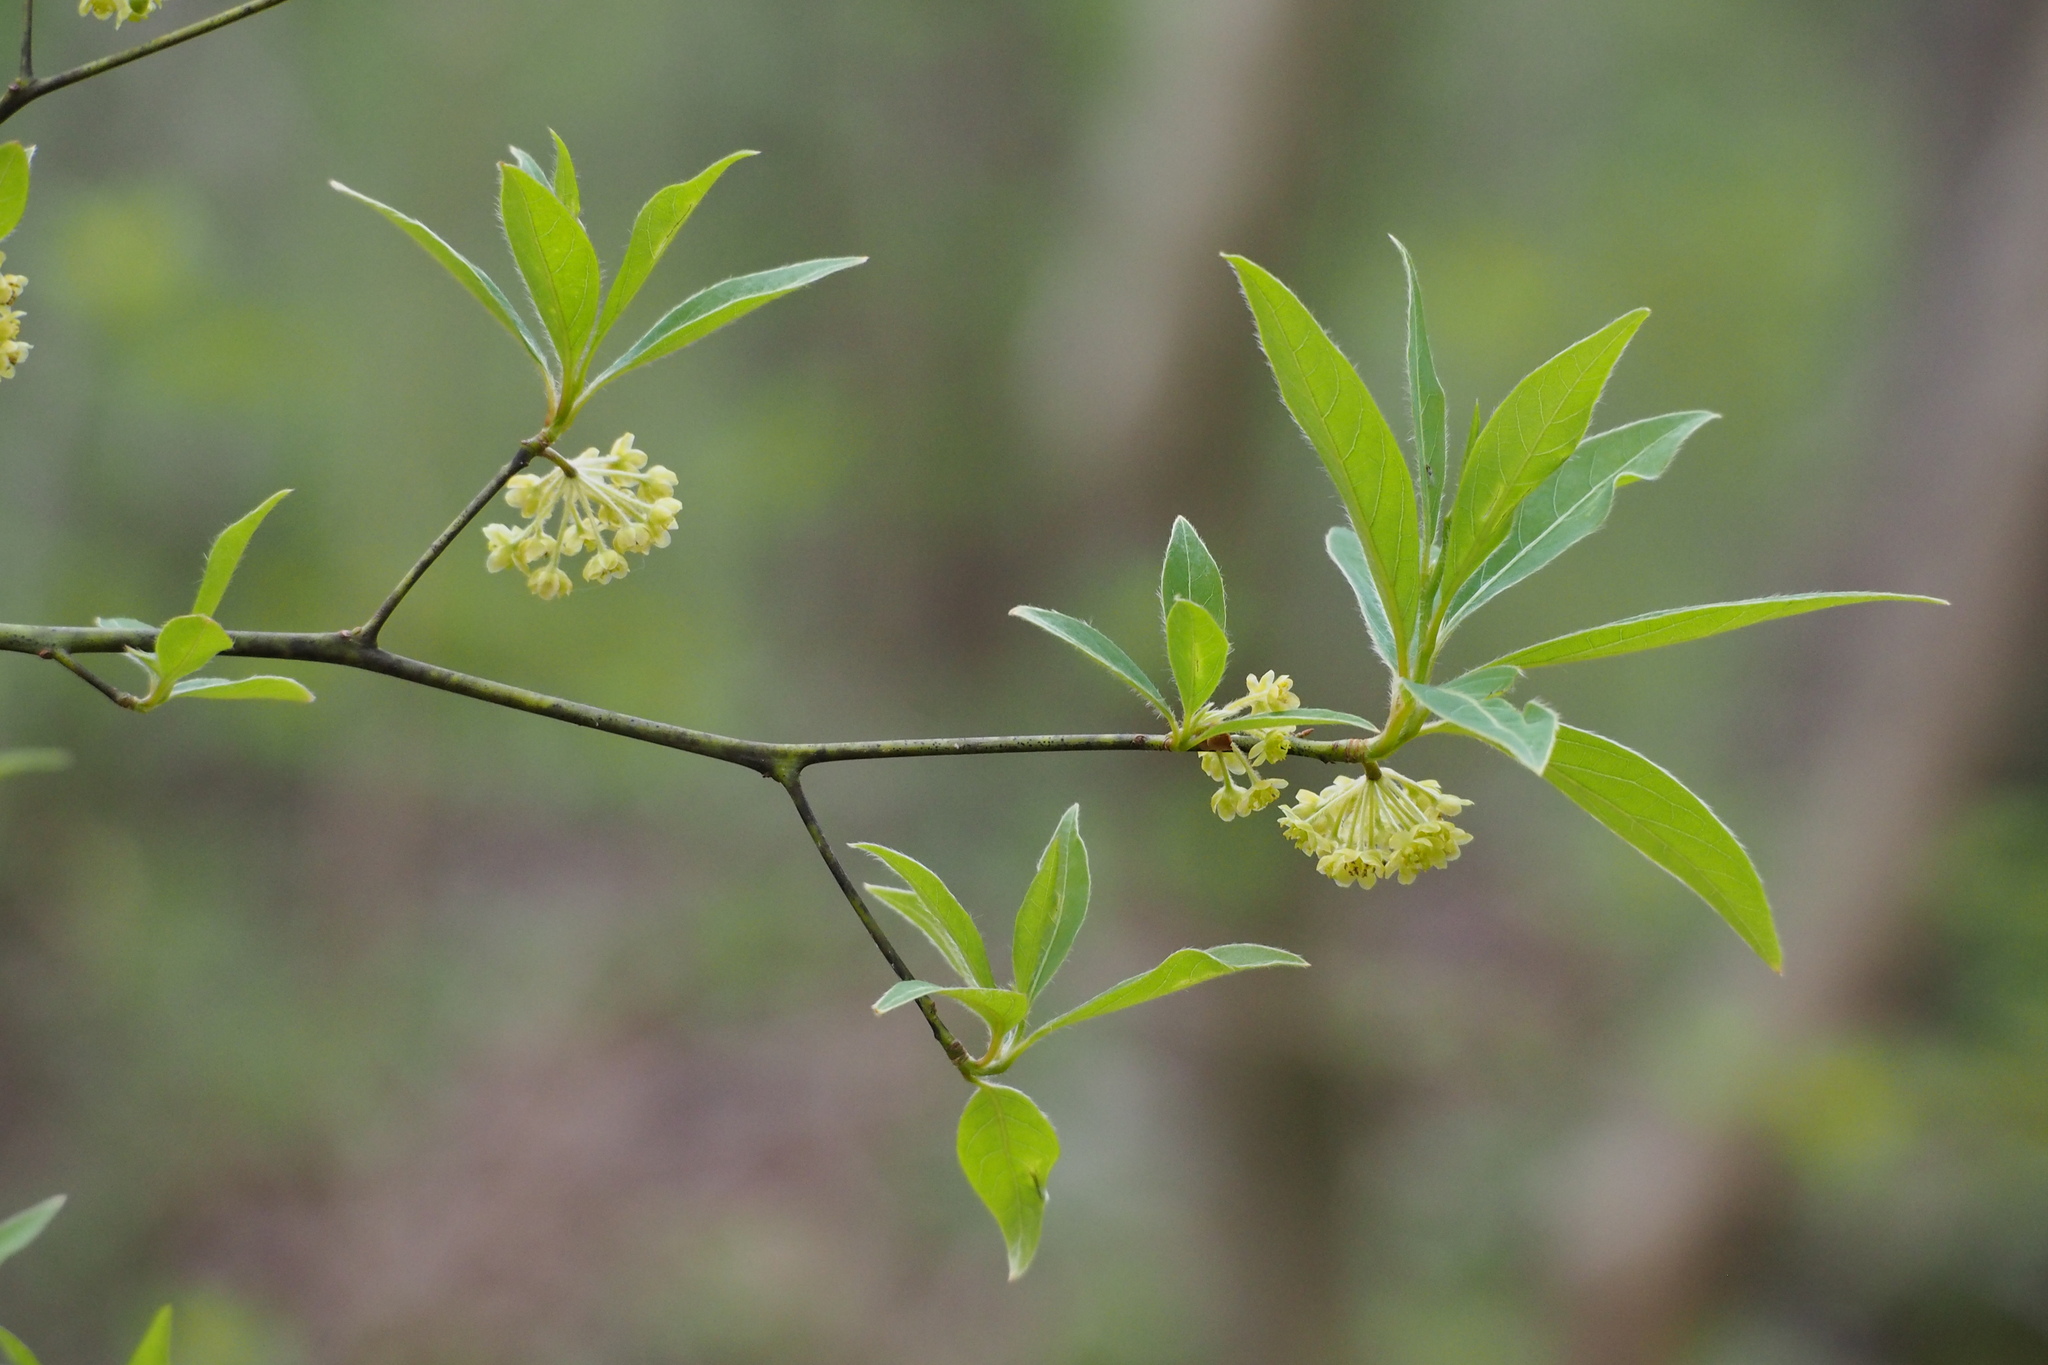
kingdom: Plantae
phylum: Tracheophyta
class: Magnoliopsida
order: Laurales
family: Lauraceae
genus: Lindera
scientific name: Lindera umbellata
